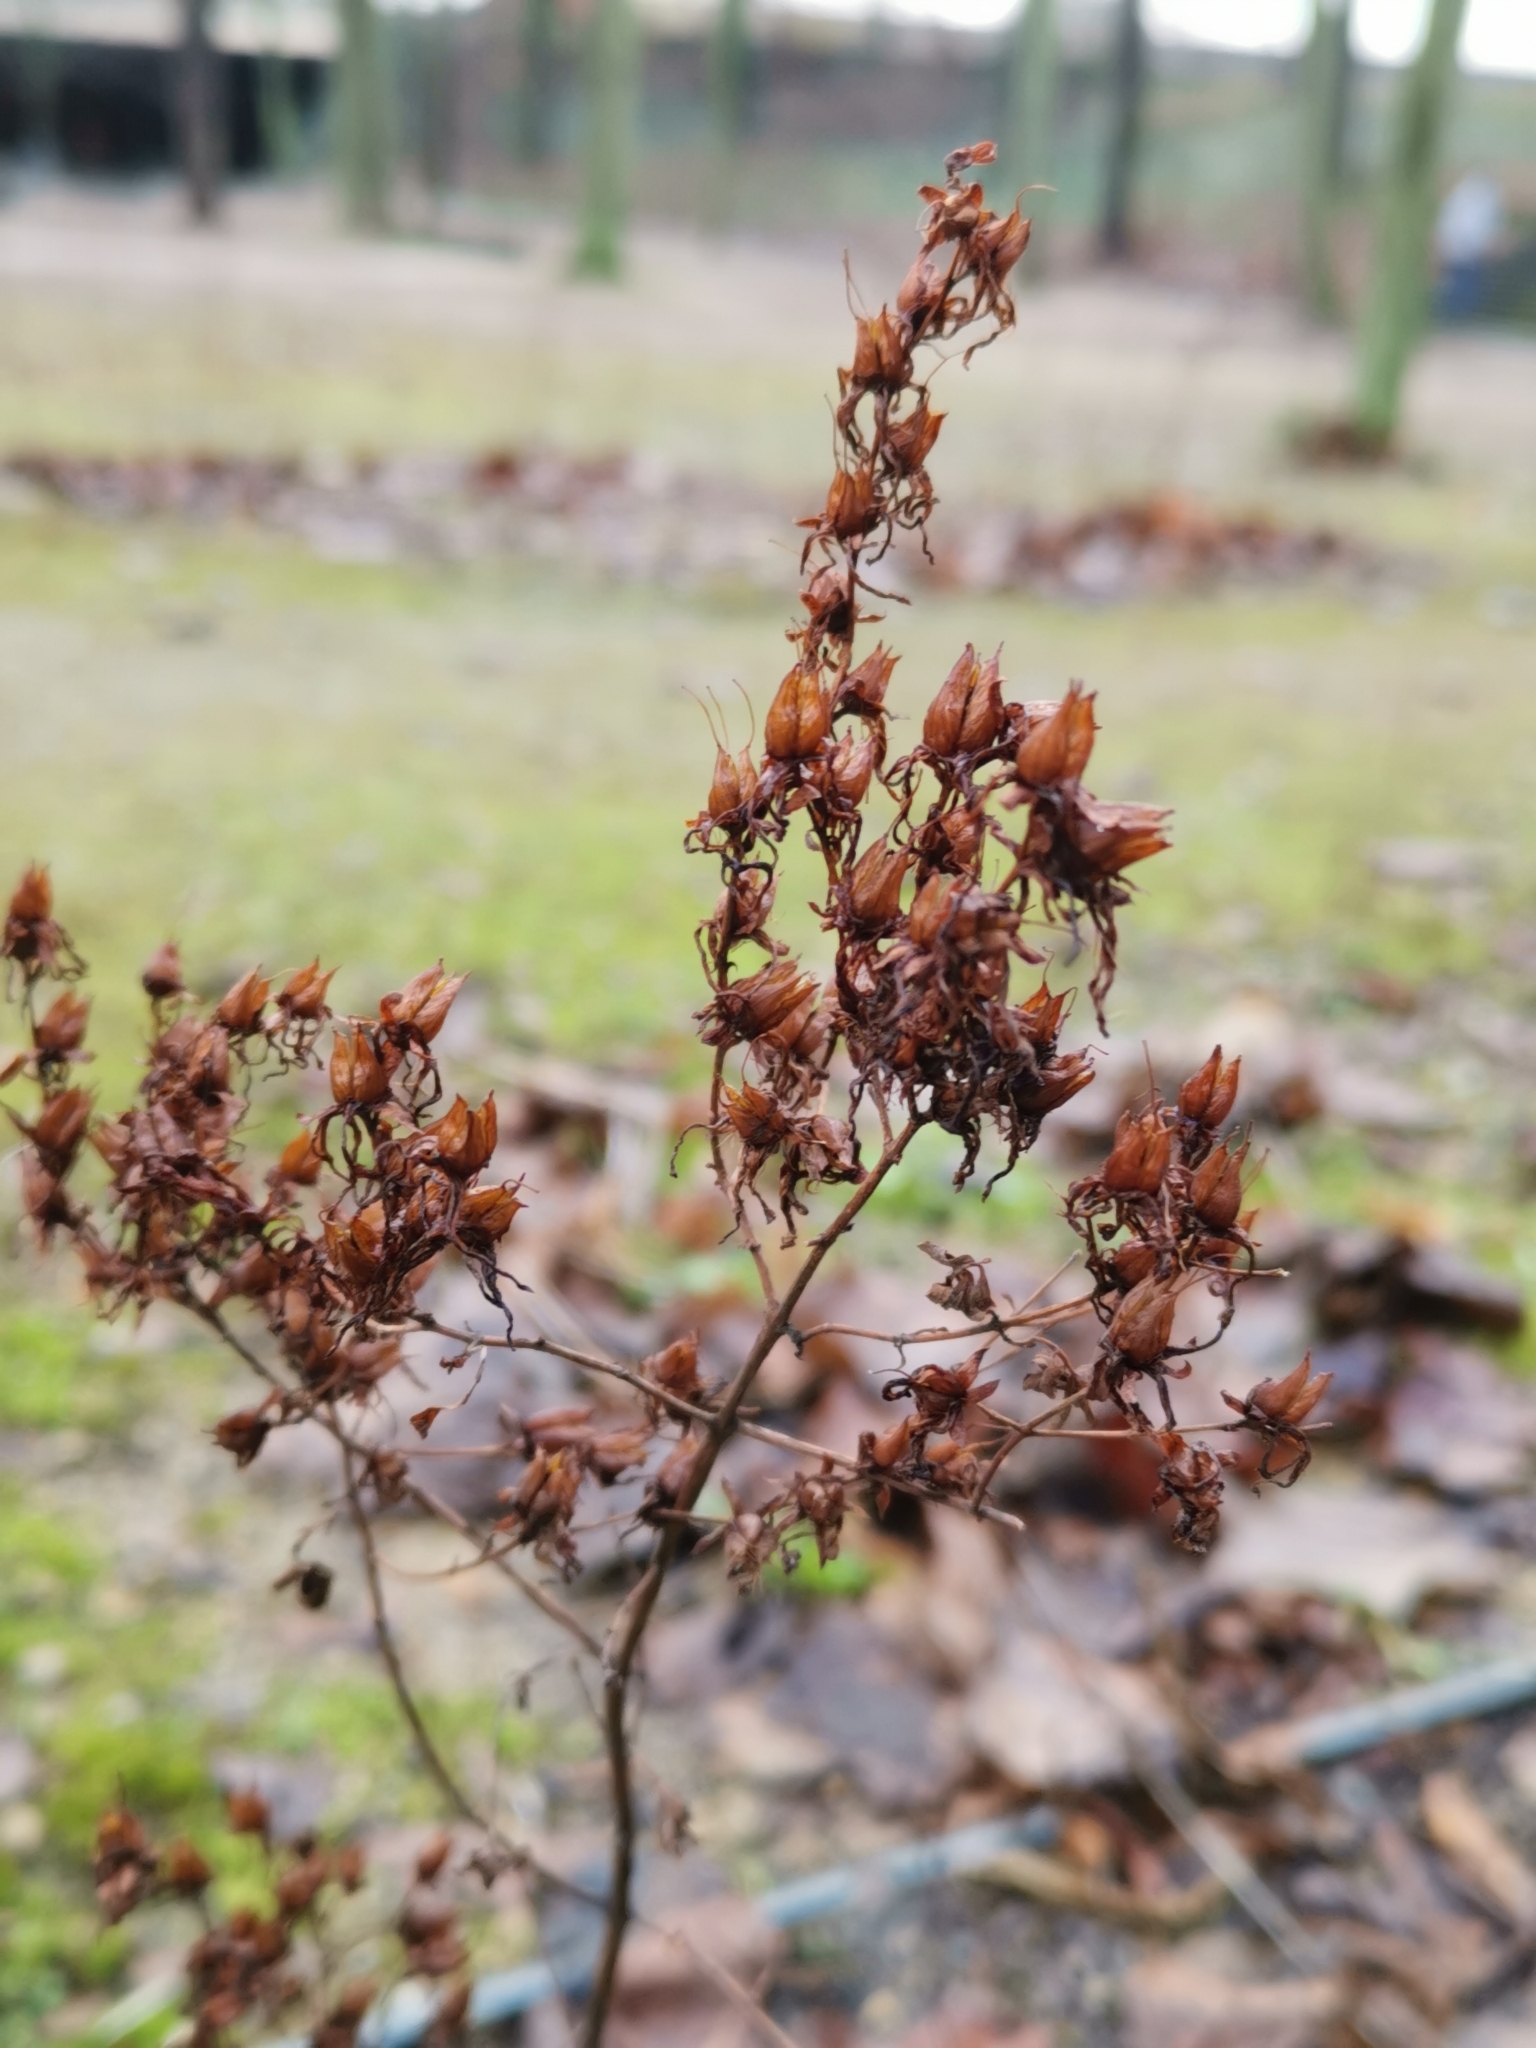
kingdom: Plantae
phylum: Tracheophyta
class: Magnoliopsida
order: Malpighiales
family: Hypericaceae
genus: Hypericum
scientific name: Hypericum perforatum
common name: Common st. johnswort
